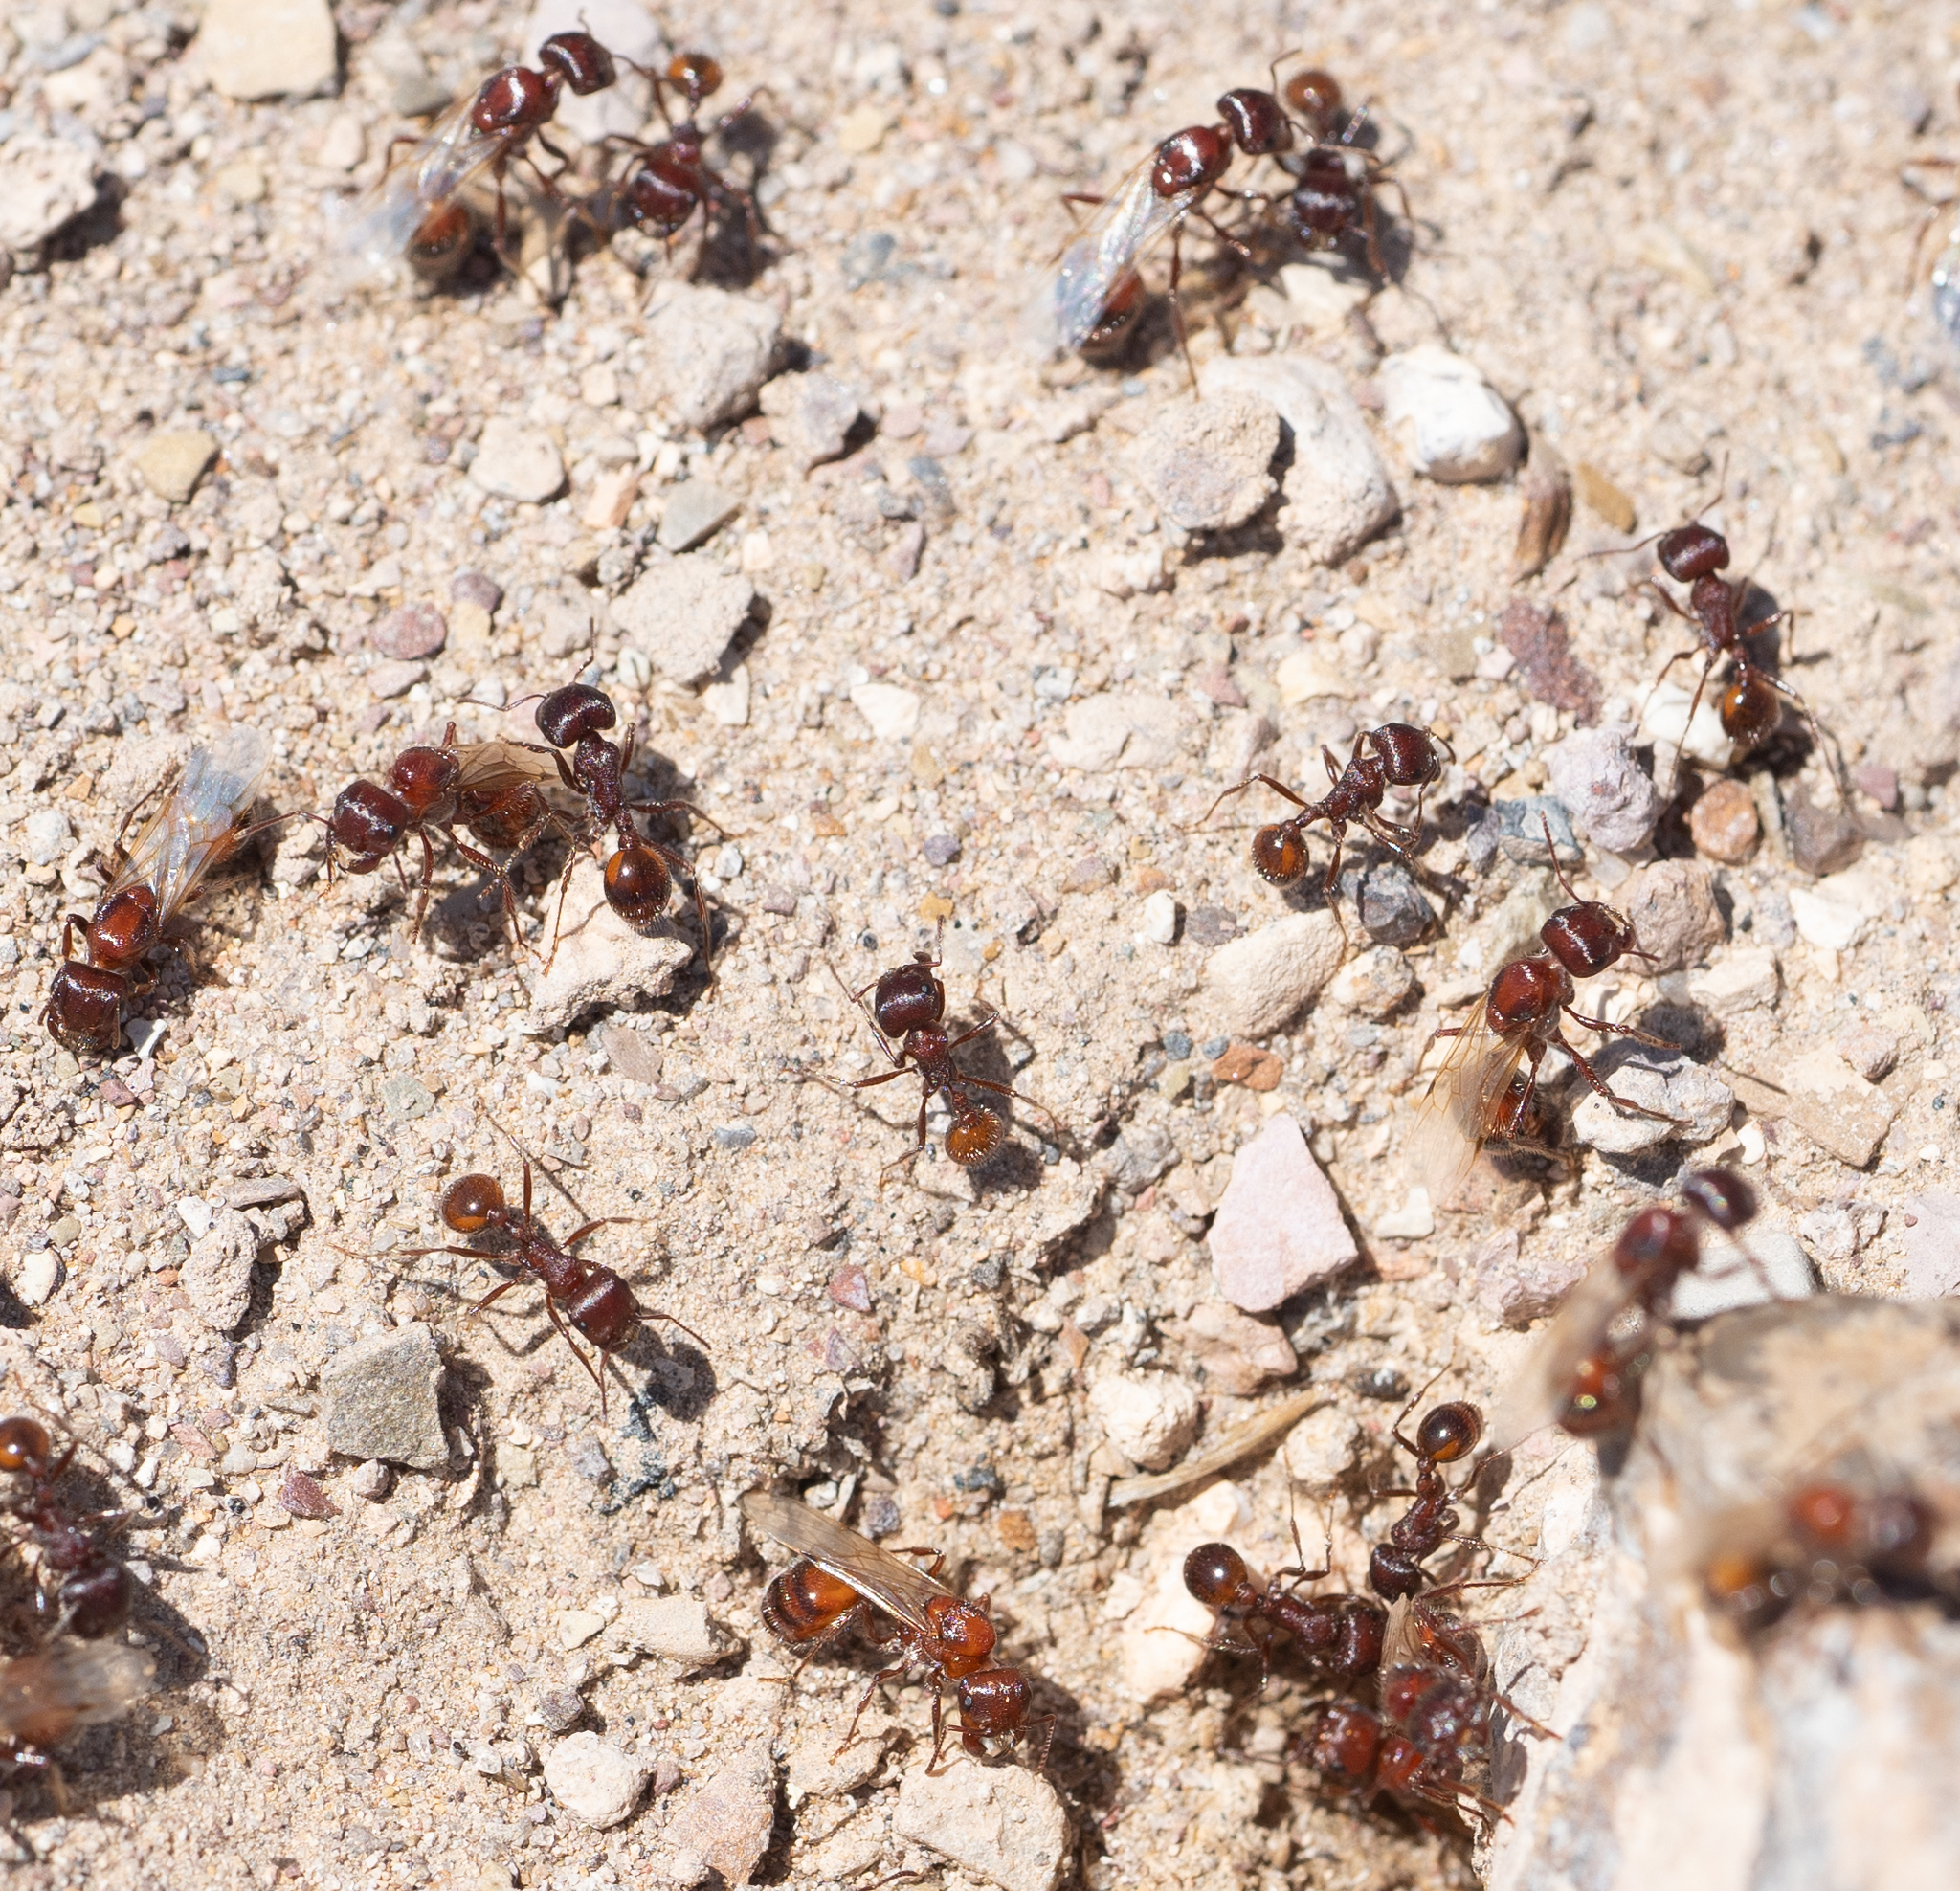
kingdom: Animalia
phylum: Arthropoda
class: Insecta
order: Hymenoptera
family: Formicidae
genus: Pogonomyrmex
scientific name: Pogonomyrmex rugosus
